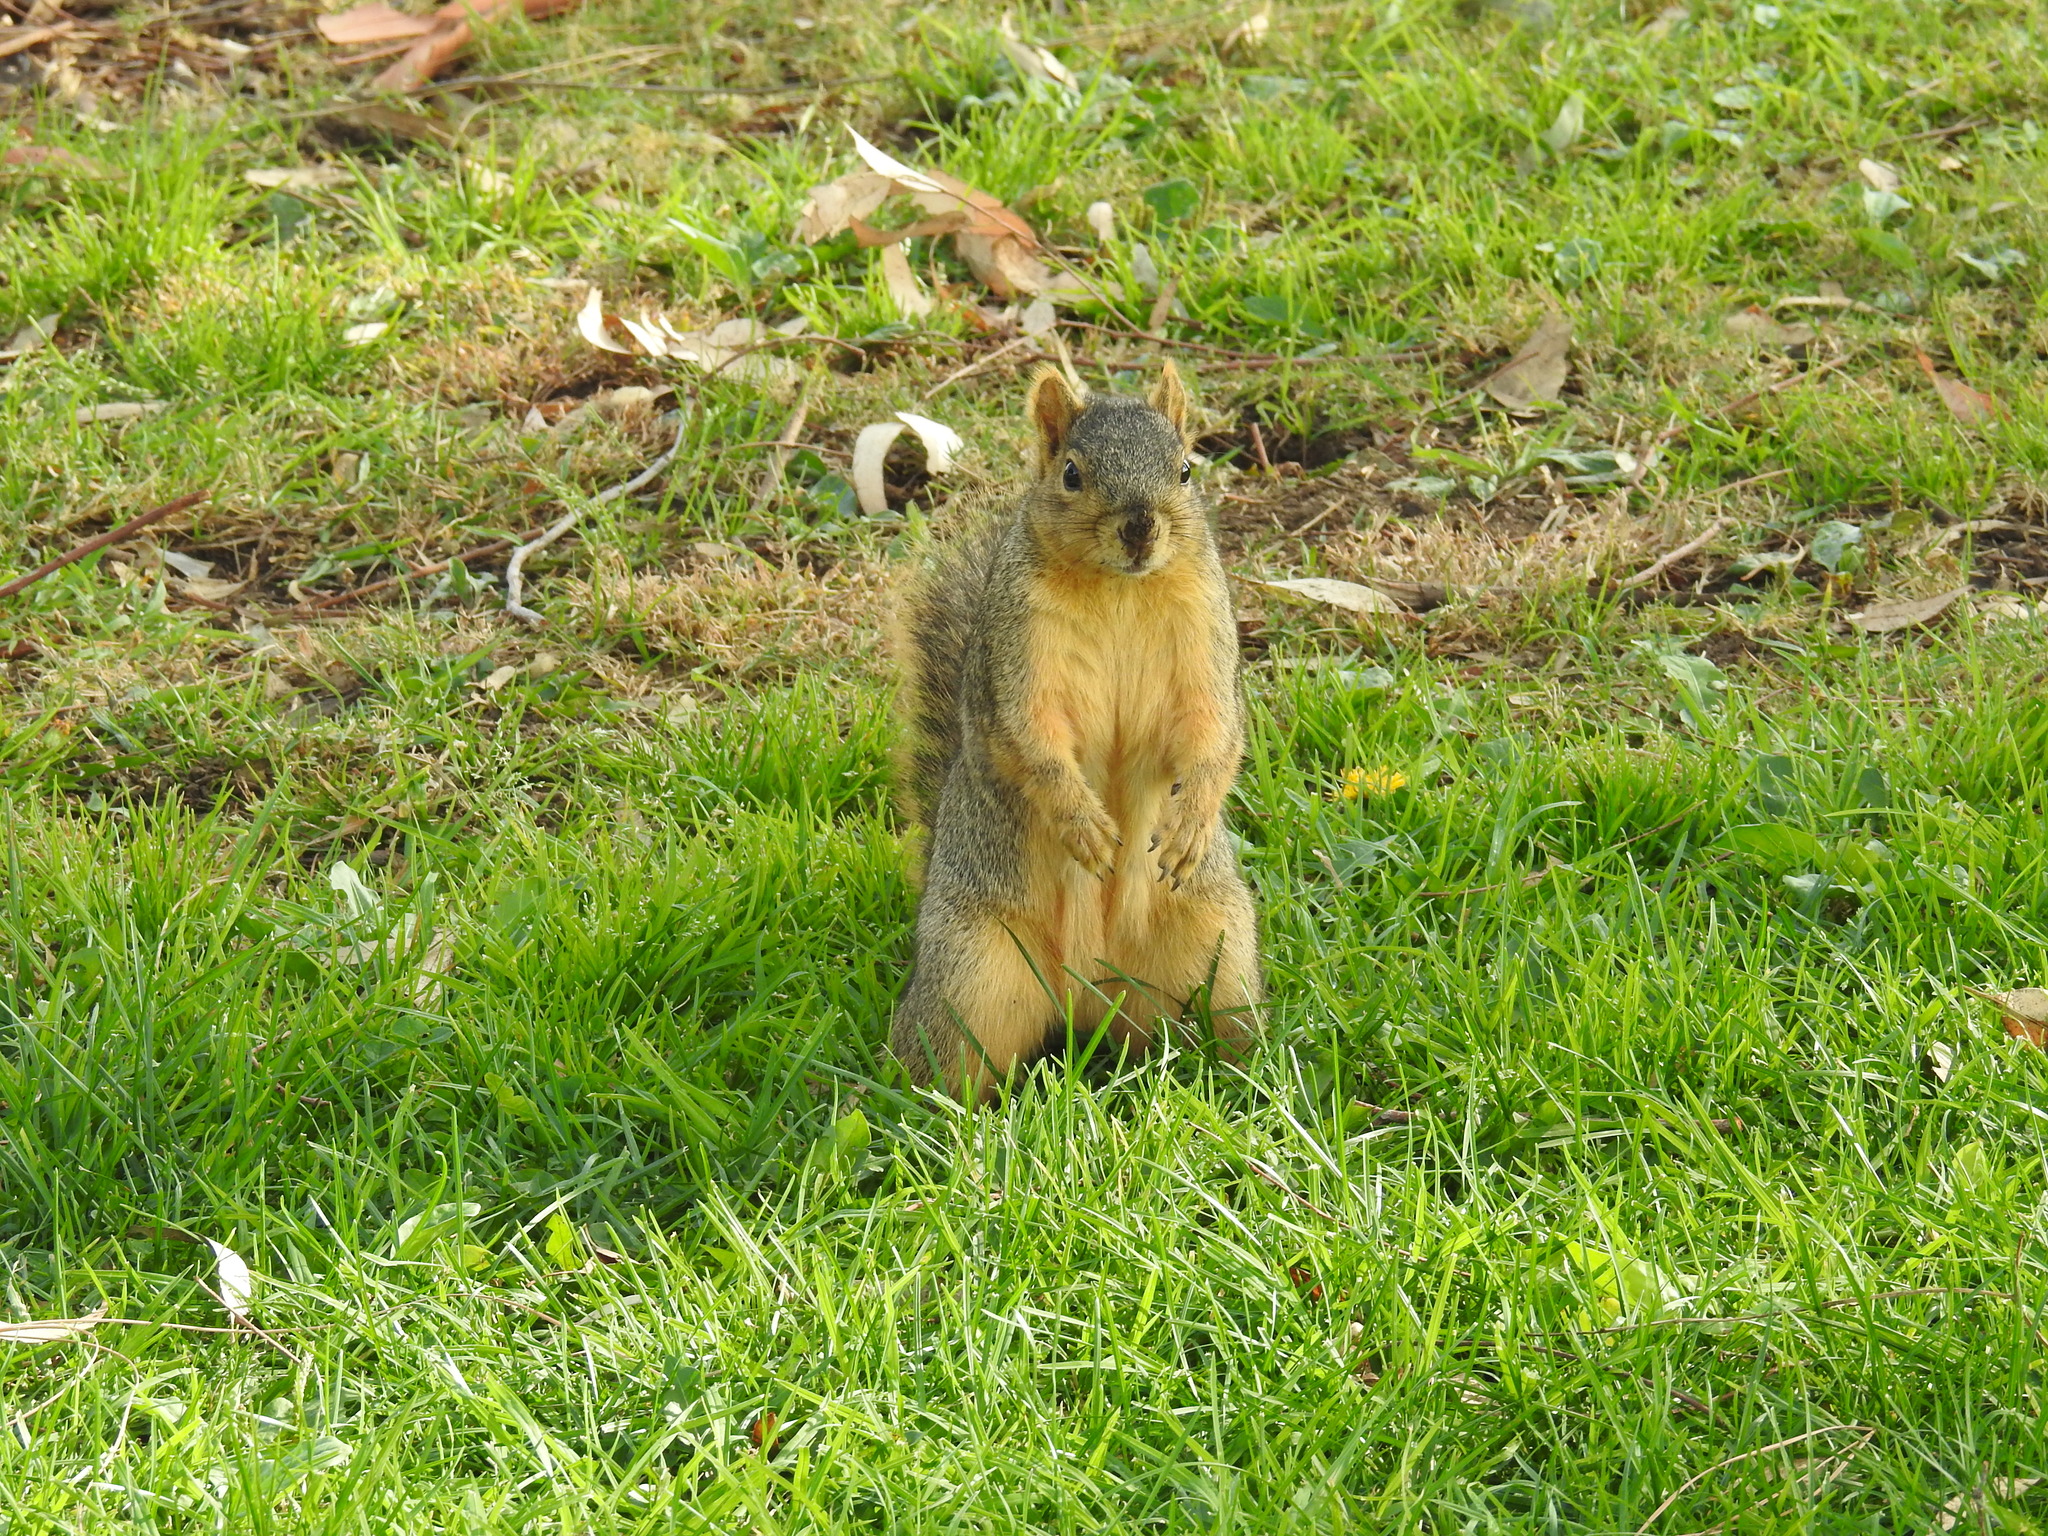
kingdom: Animalia
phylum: Chordata
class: Mammalia
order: Rodentia
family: Sciuridae
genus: Sciurus
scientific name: Sciurus niger
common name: Fox squirrel
